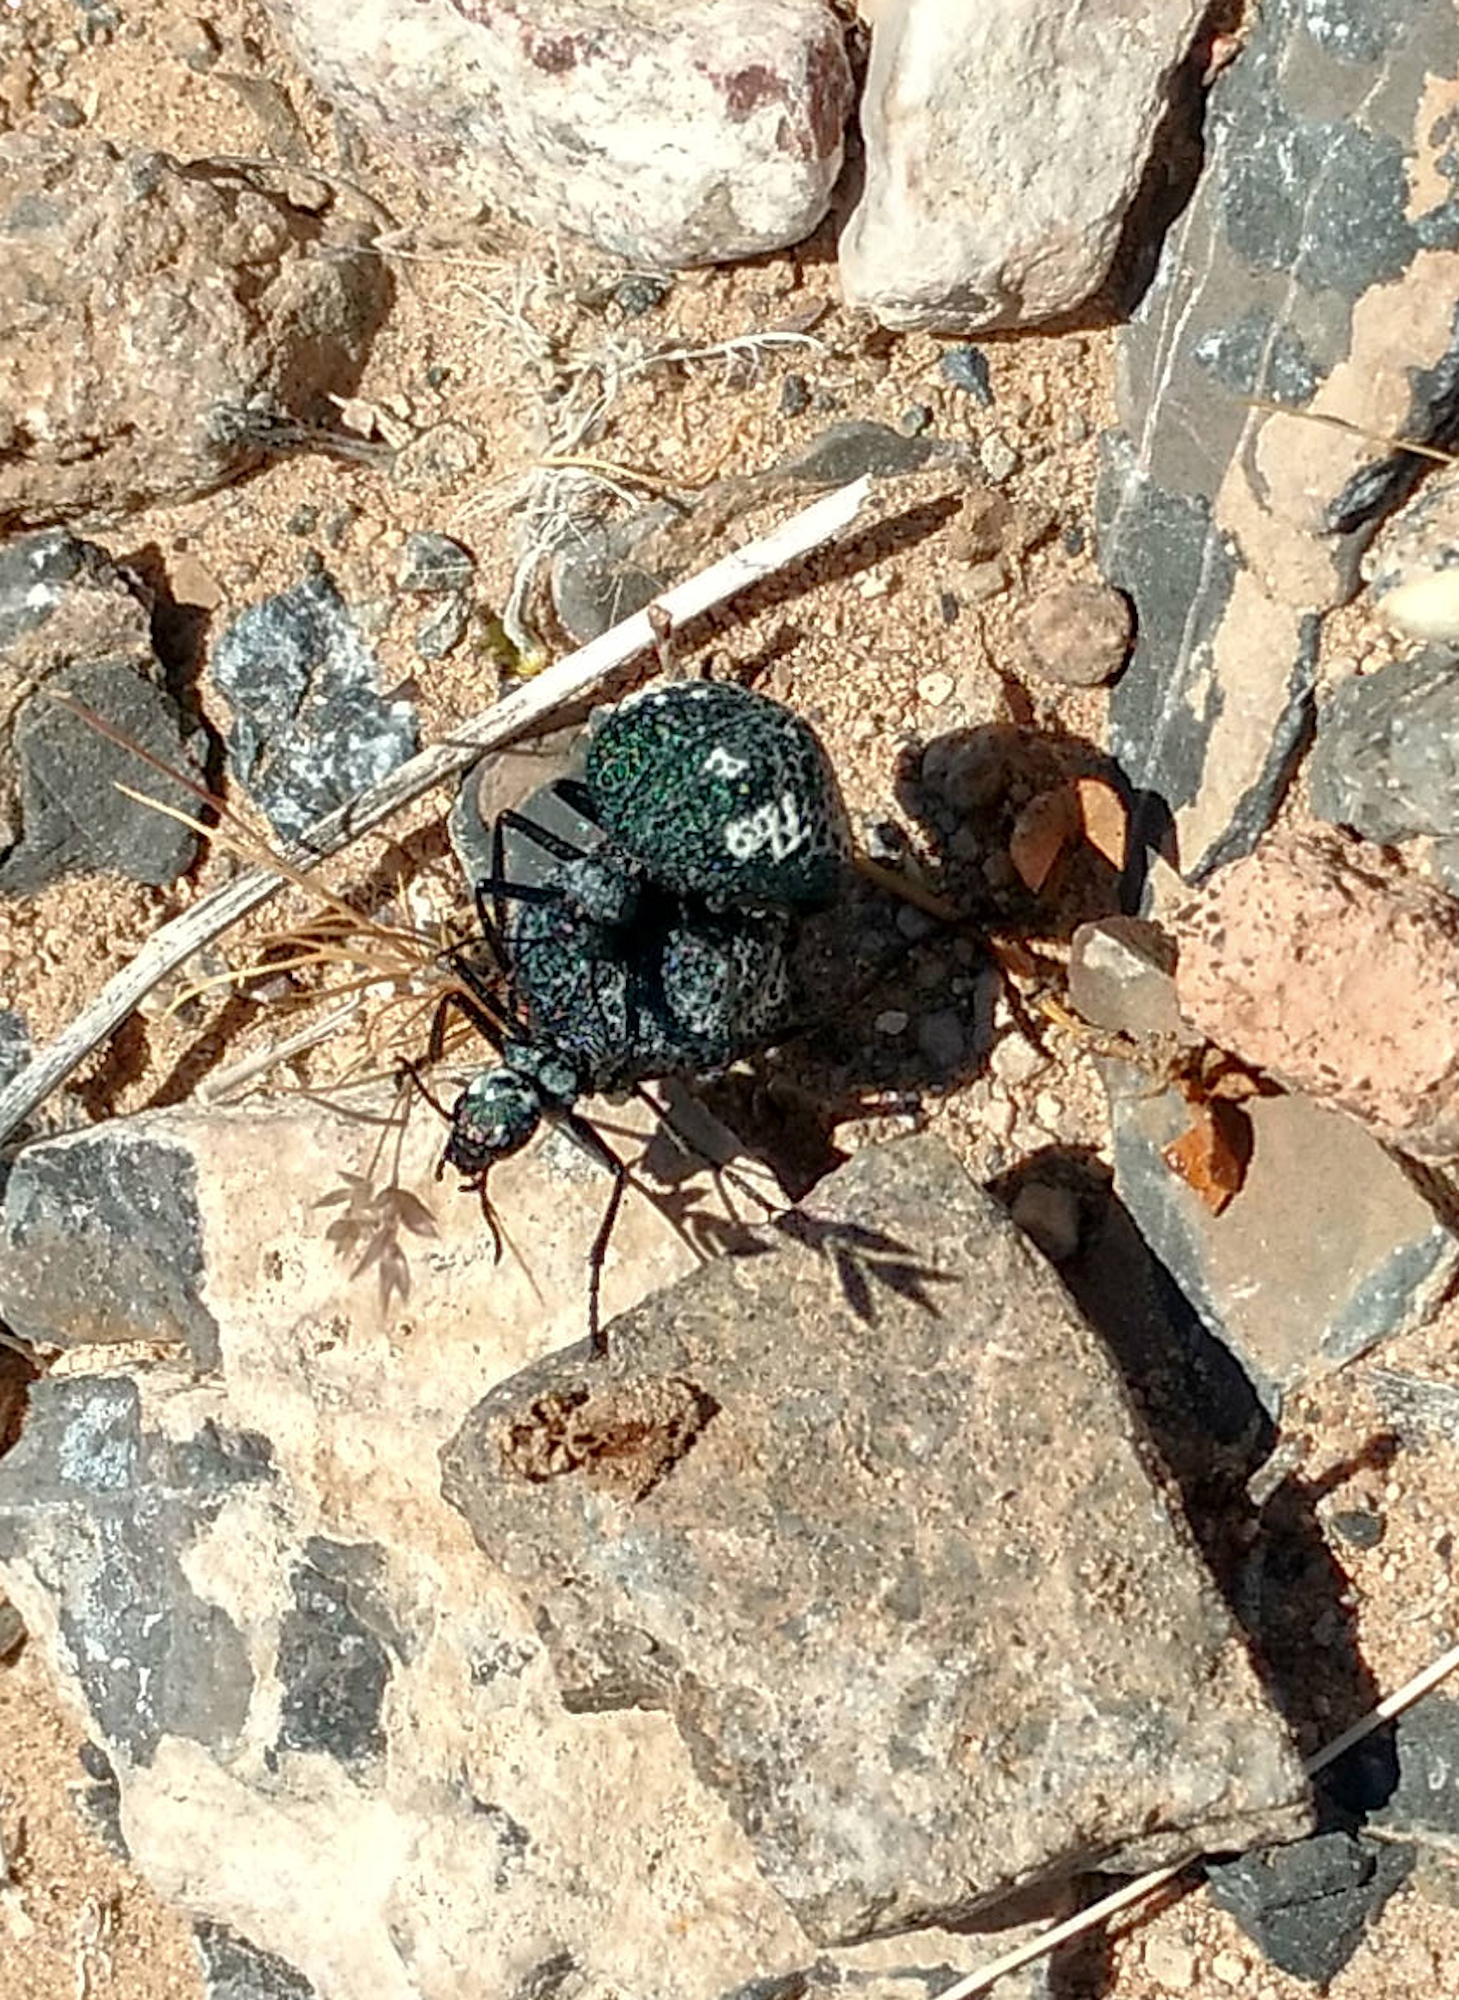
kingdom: Animalia
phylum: Arthropoda
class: Insecta
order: Coleoptera
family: Meloidae
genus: Cysteodemus
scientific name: Cysteodemus armatus
